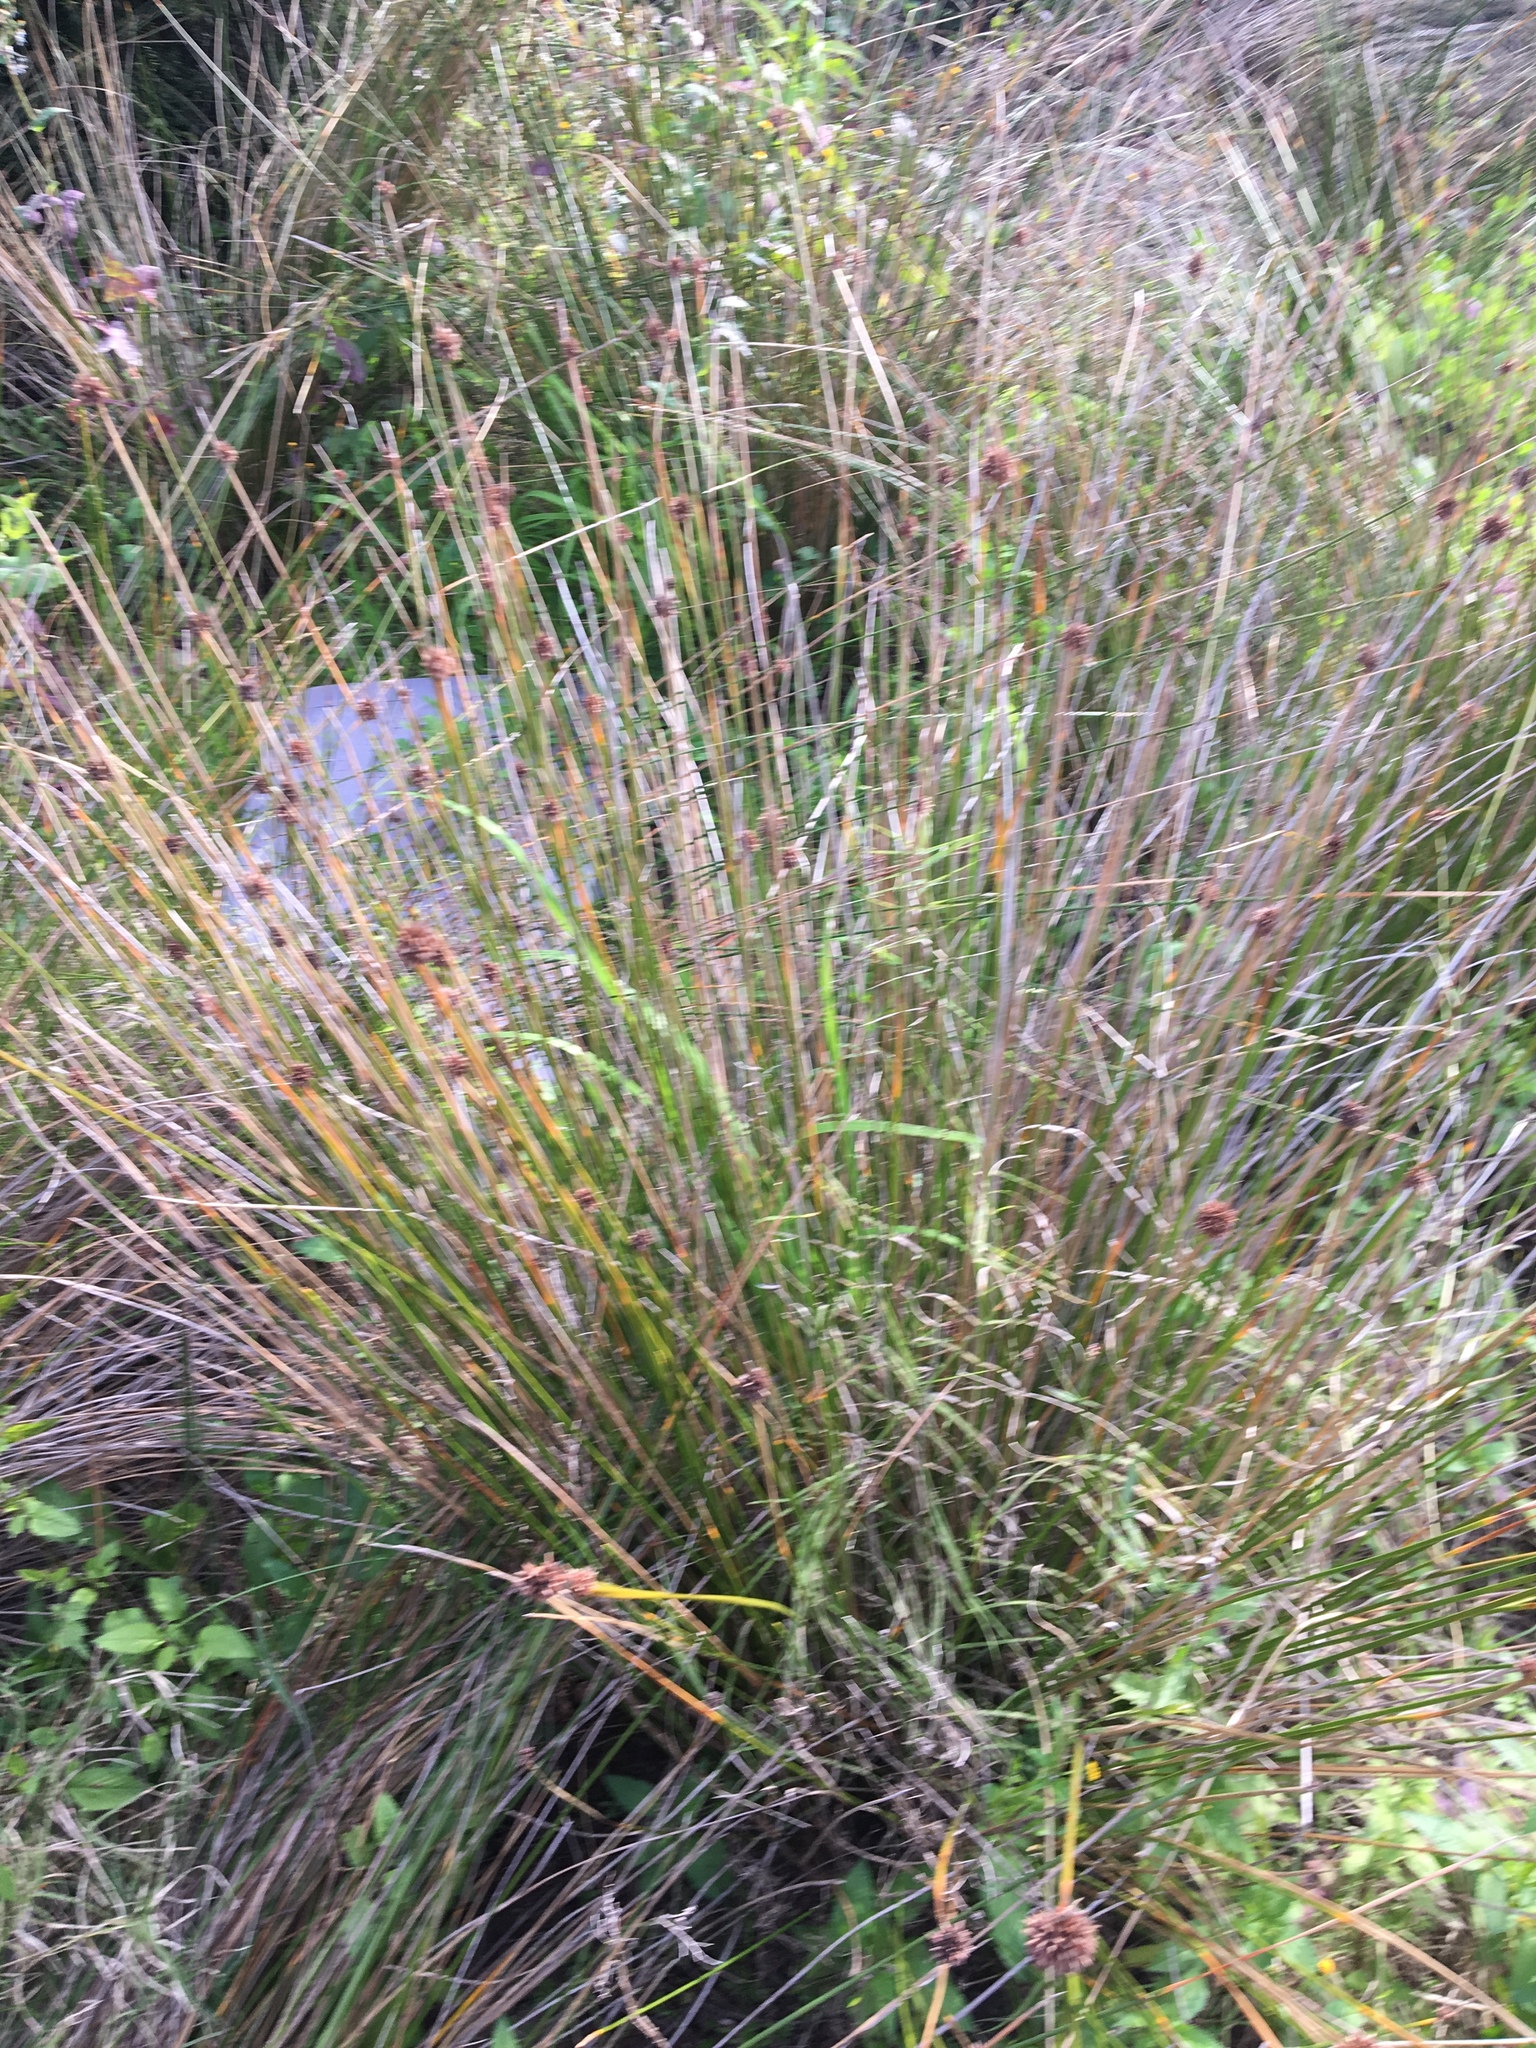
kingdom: Plantae
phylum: Tracheophyta
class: Liliopsida
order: Poales
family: Cyperaceae
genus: Ficinia
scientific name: Ficinia nodosa
